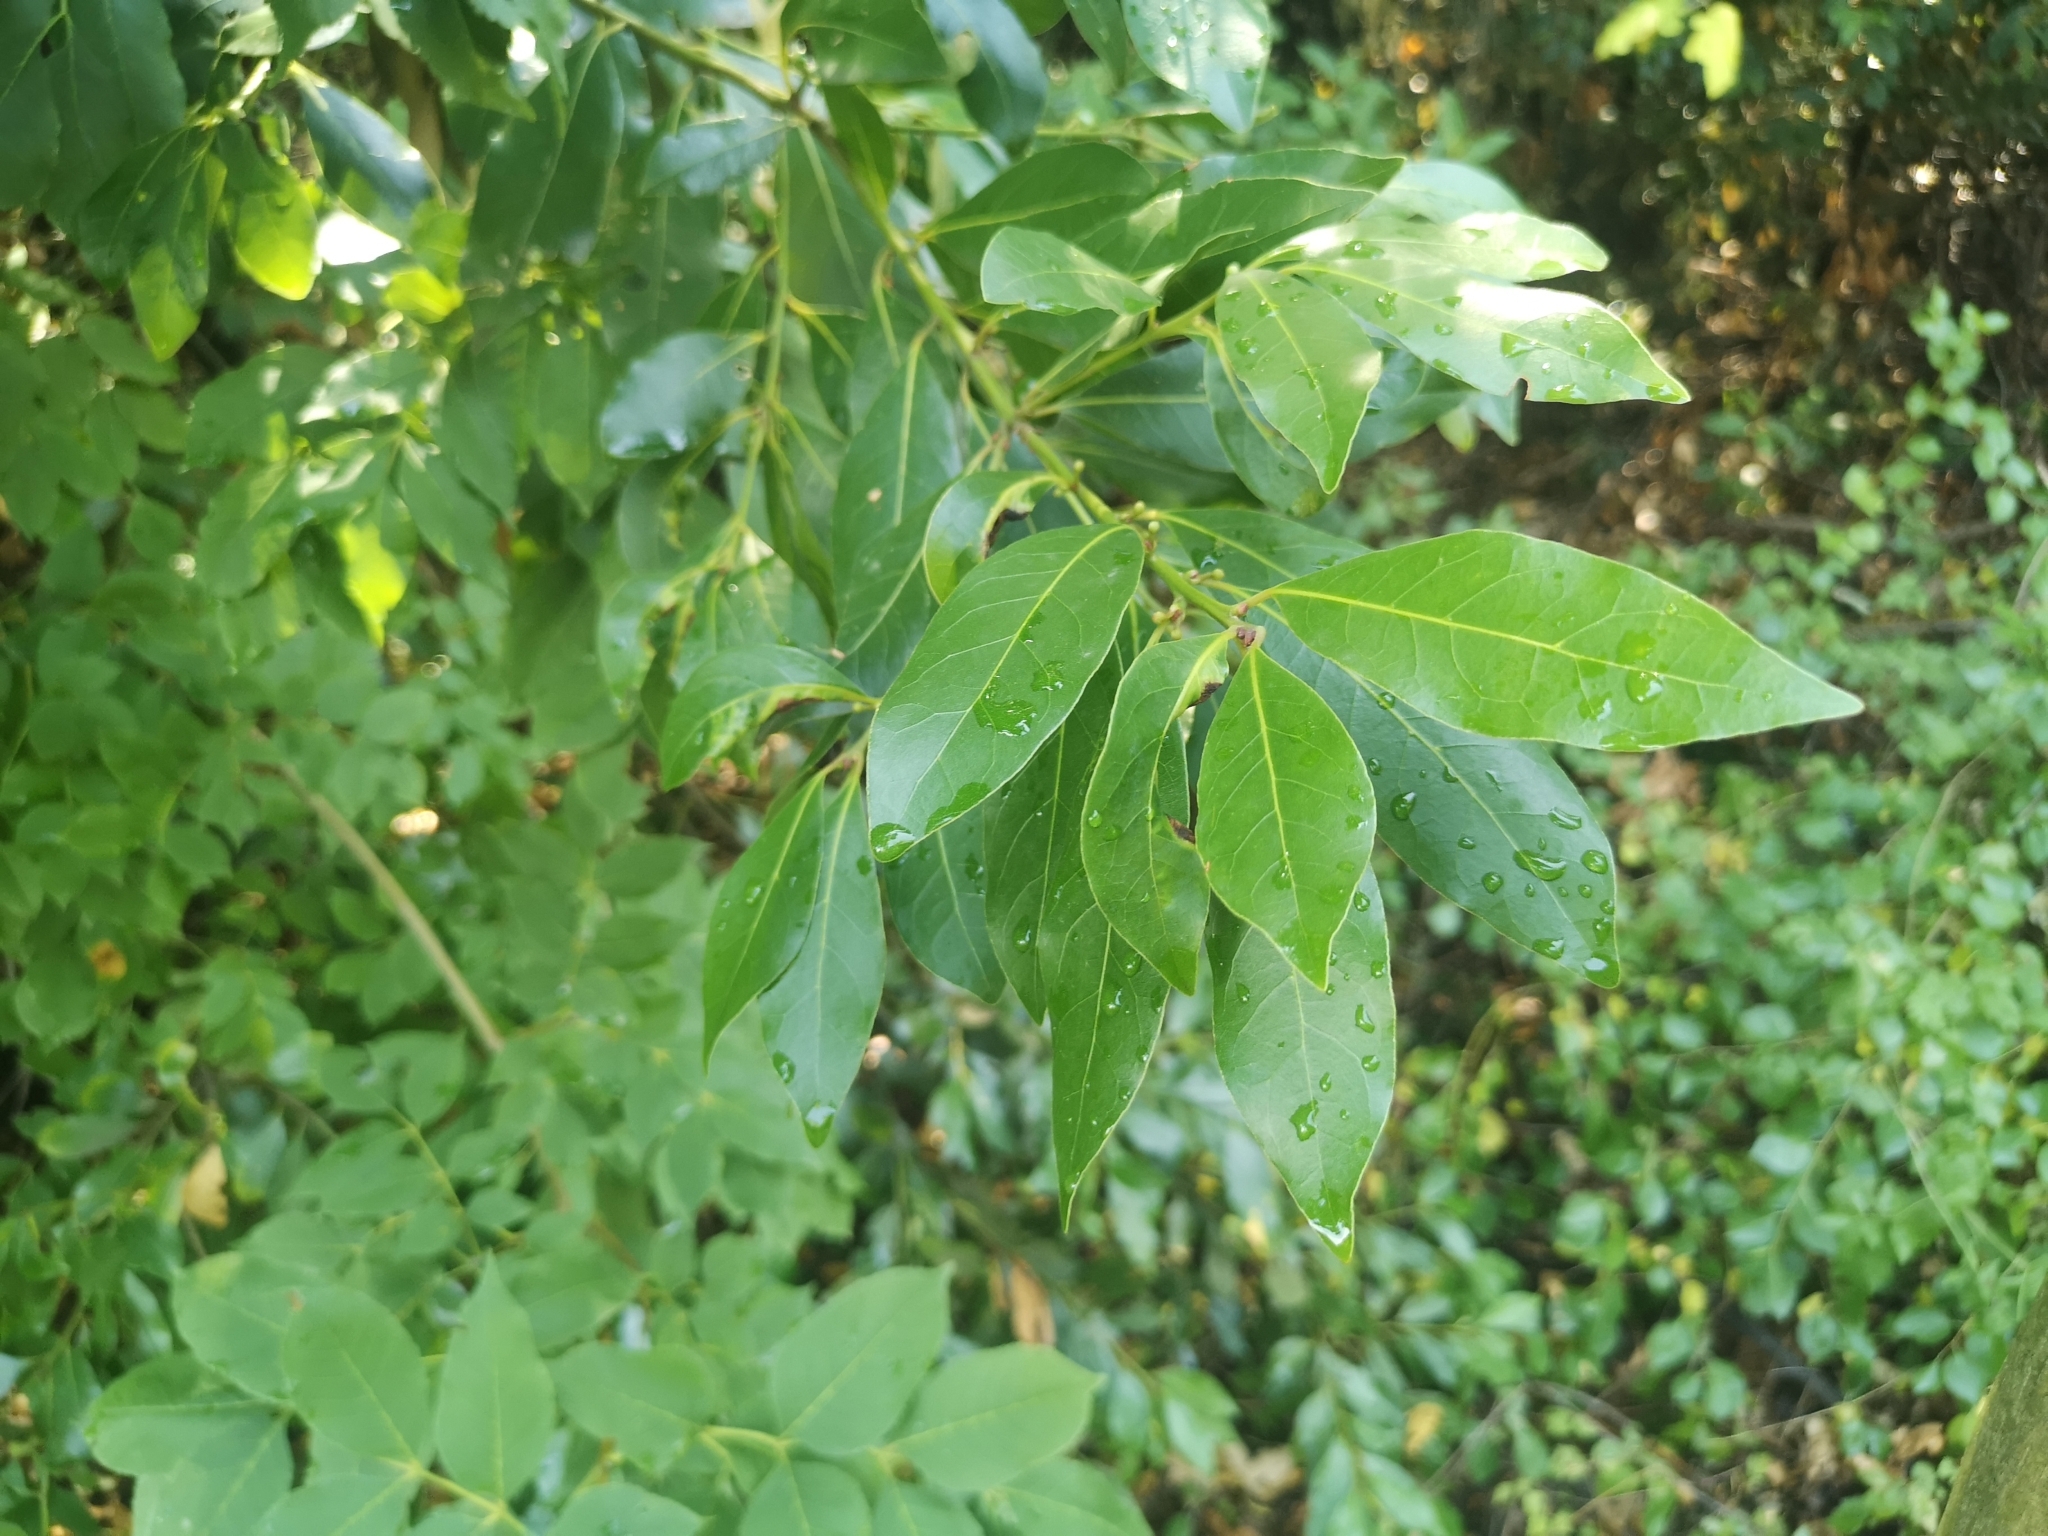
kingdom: Plantae
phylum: Tracheophyta
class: Magnoliopsida
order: Laurales
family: Lauraceae
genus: Laurus
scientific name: Laurus nobilis
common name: Bay
